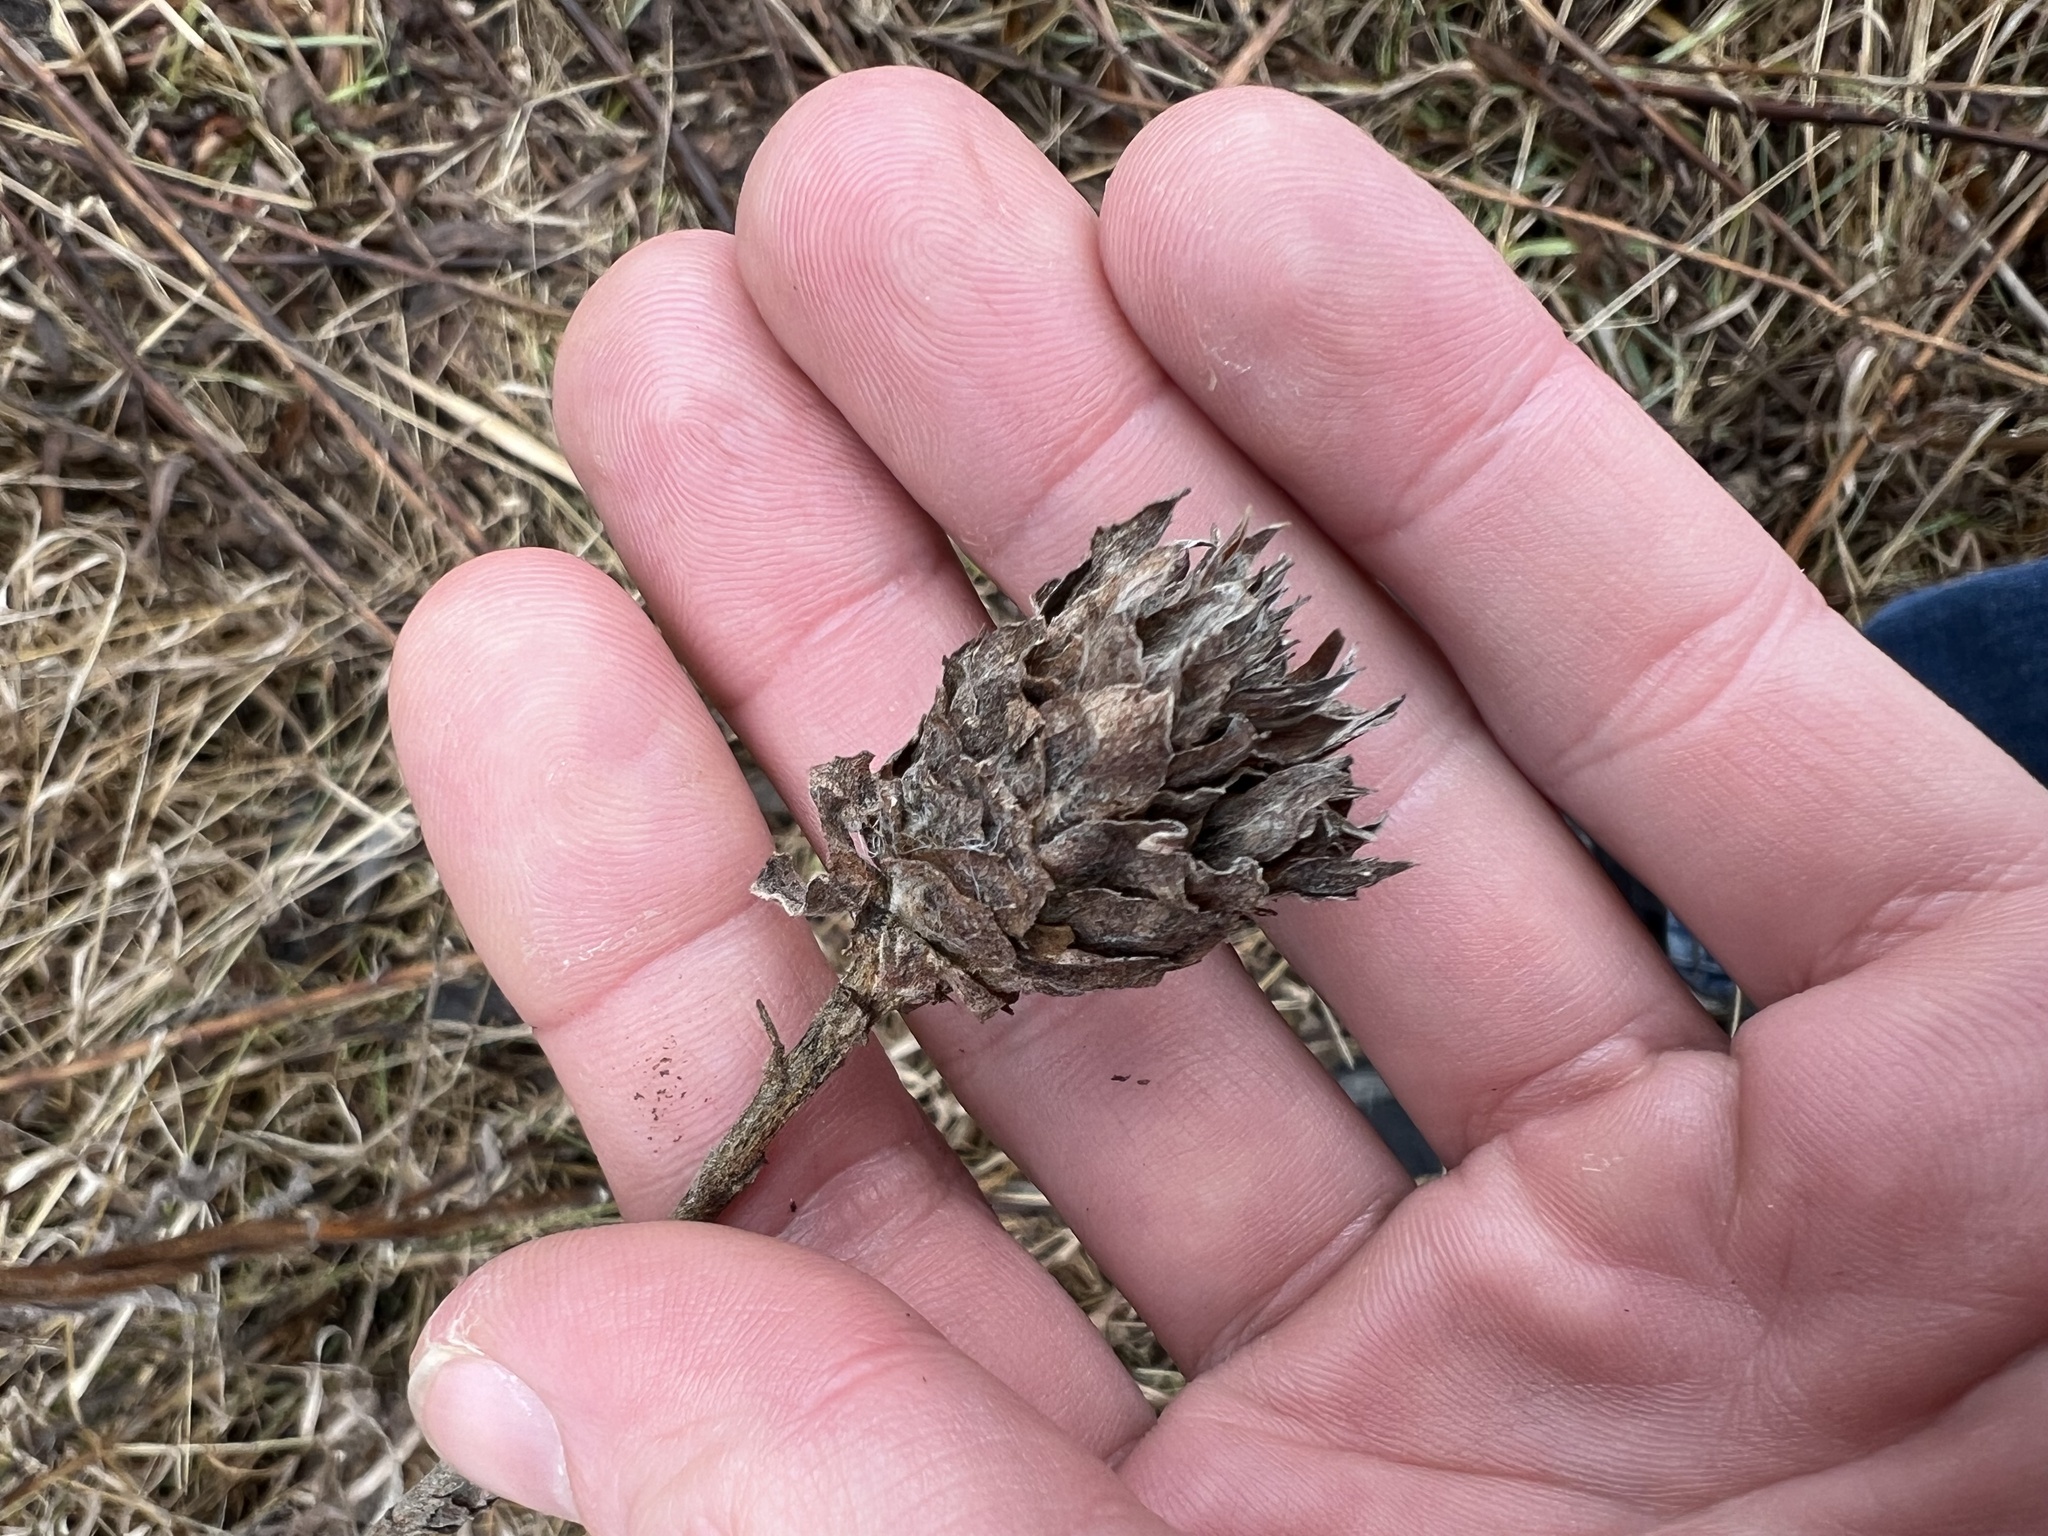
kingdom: Animalia
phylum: Arthropoda
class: Insecta
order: Diptera
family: Cecidomyiidae
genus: Rhopalomyia
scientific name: Rhopalomyia solidaginis
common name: Goldenrod bunch gall midge
